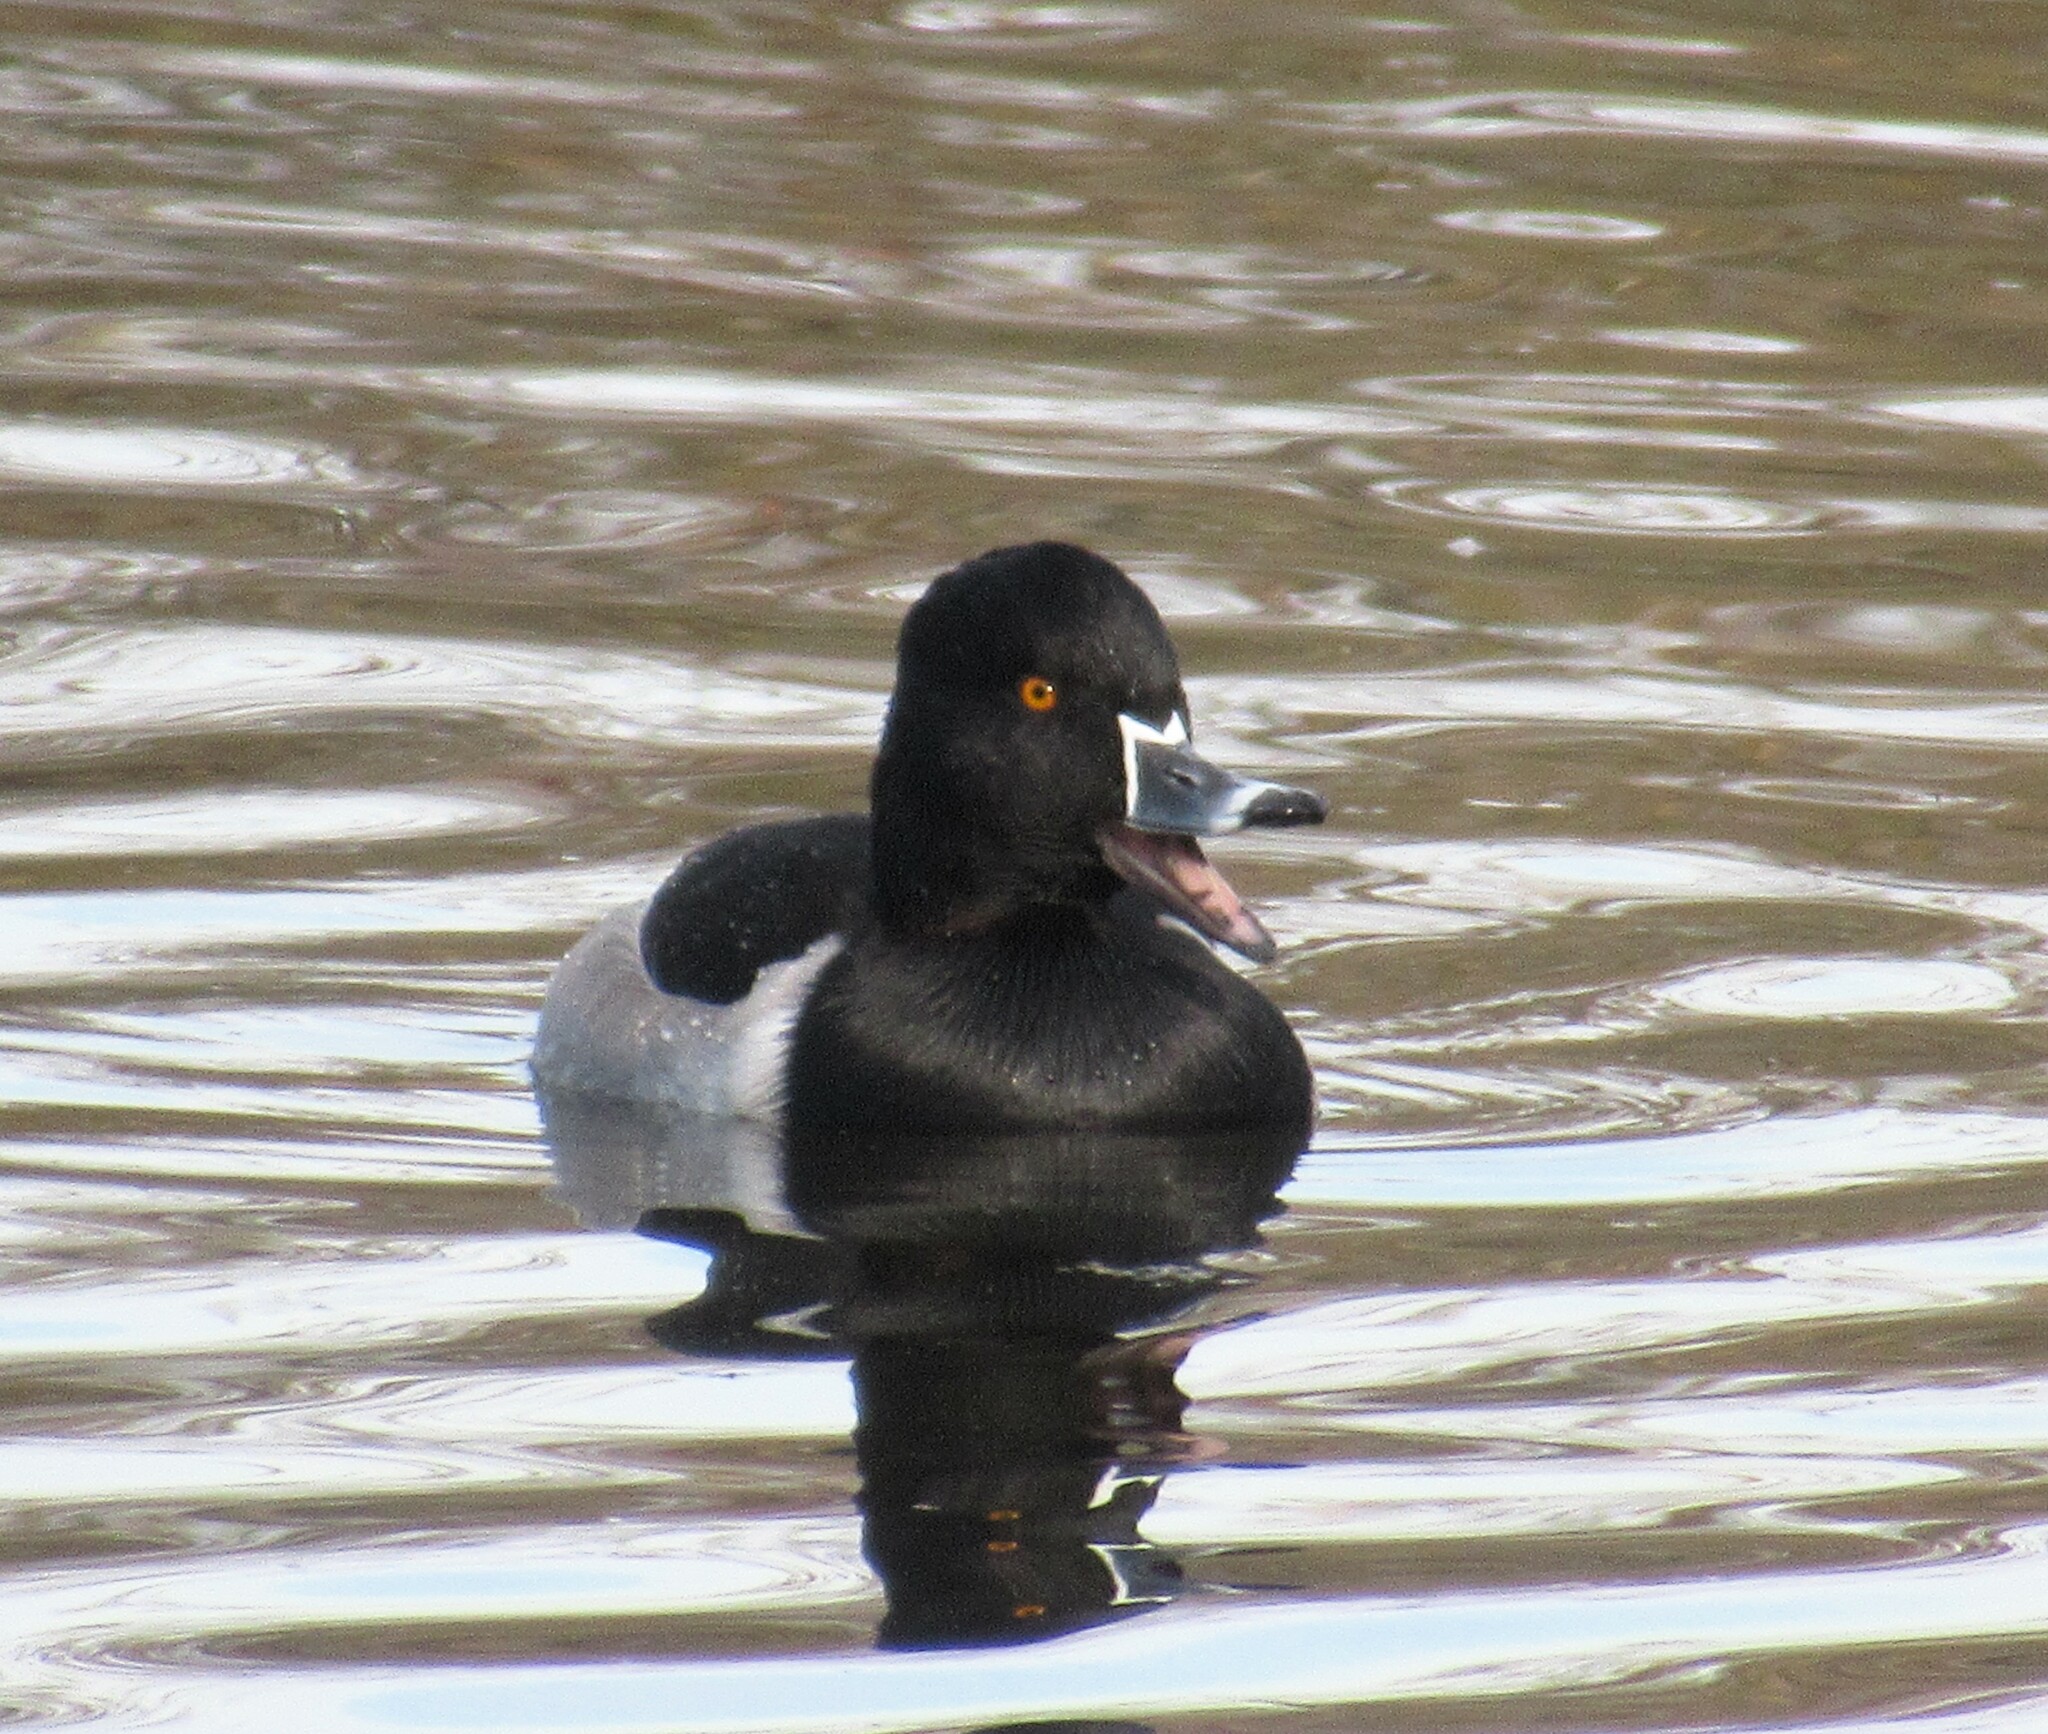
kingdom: Animalia
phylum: Chordata
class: Aves
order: Anseriformes
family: Anatidae
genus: Aythya
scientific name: Aythya collaris
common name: Ring-necked duck
